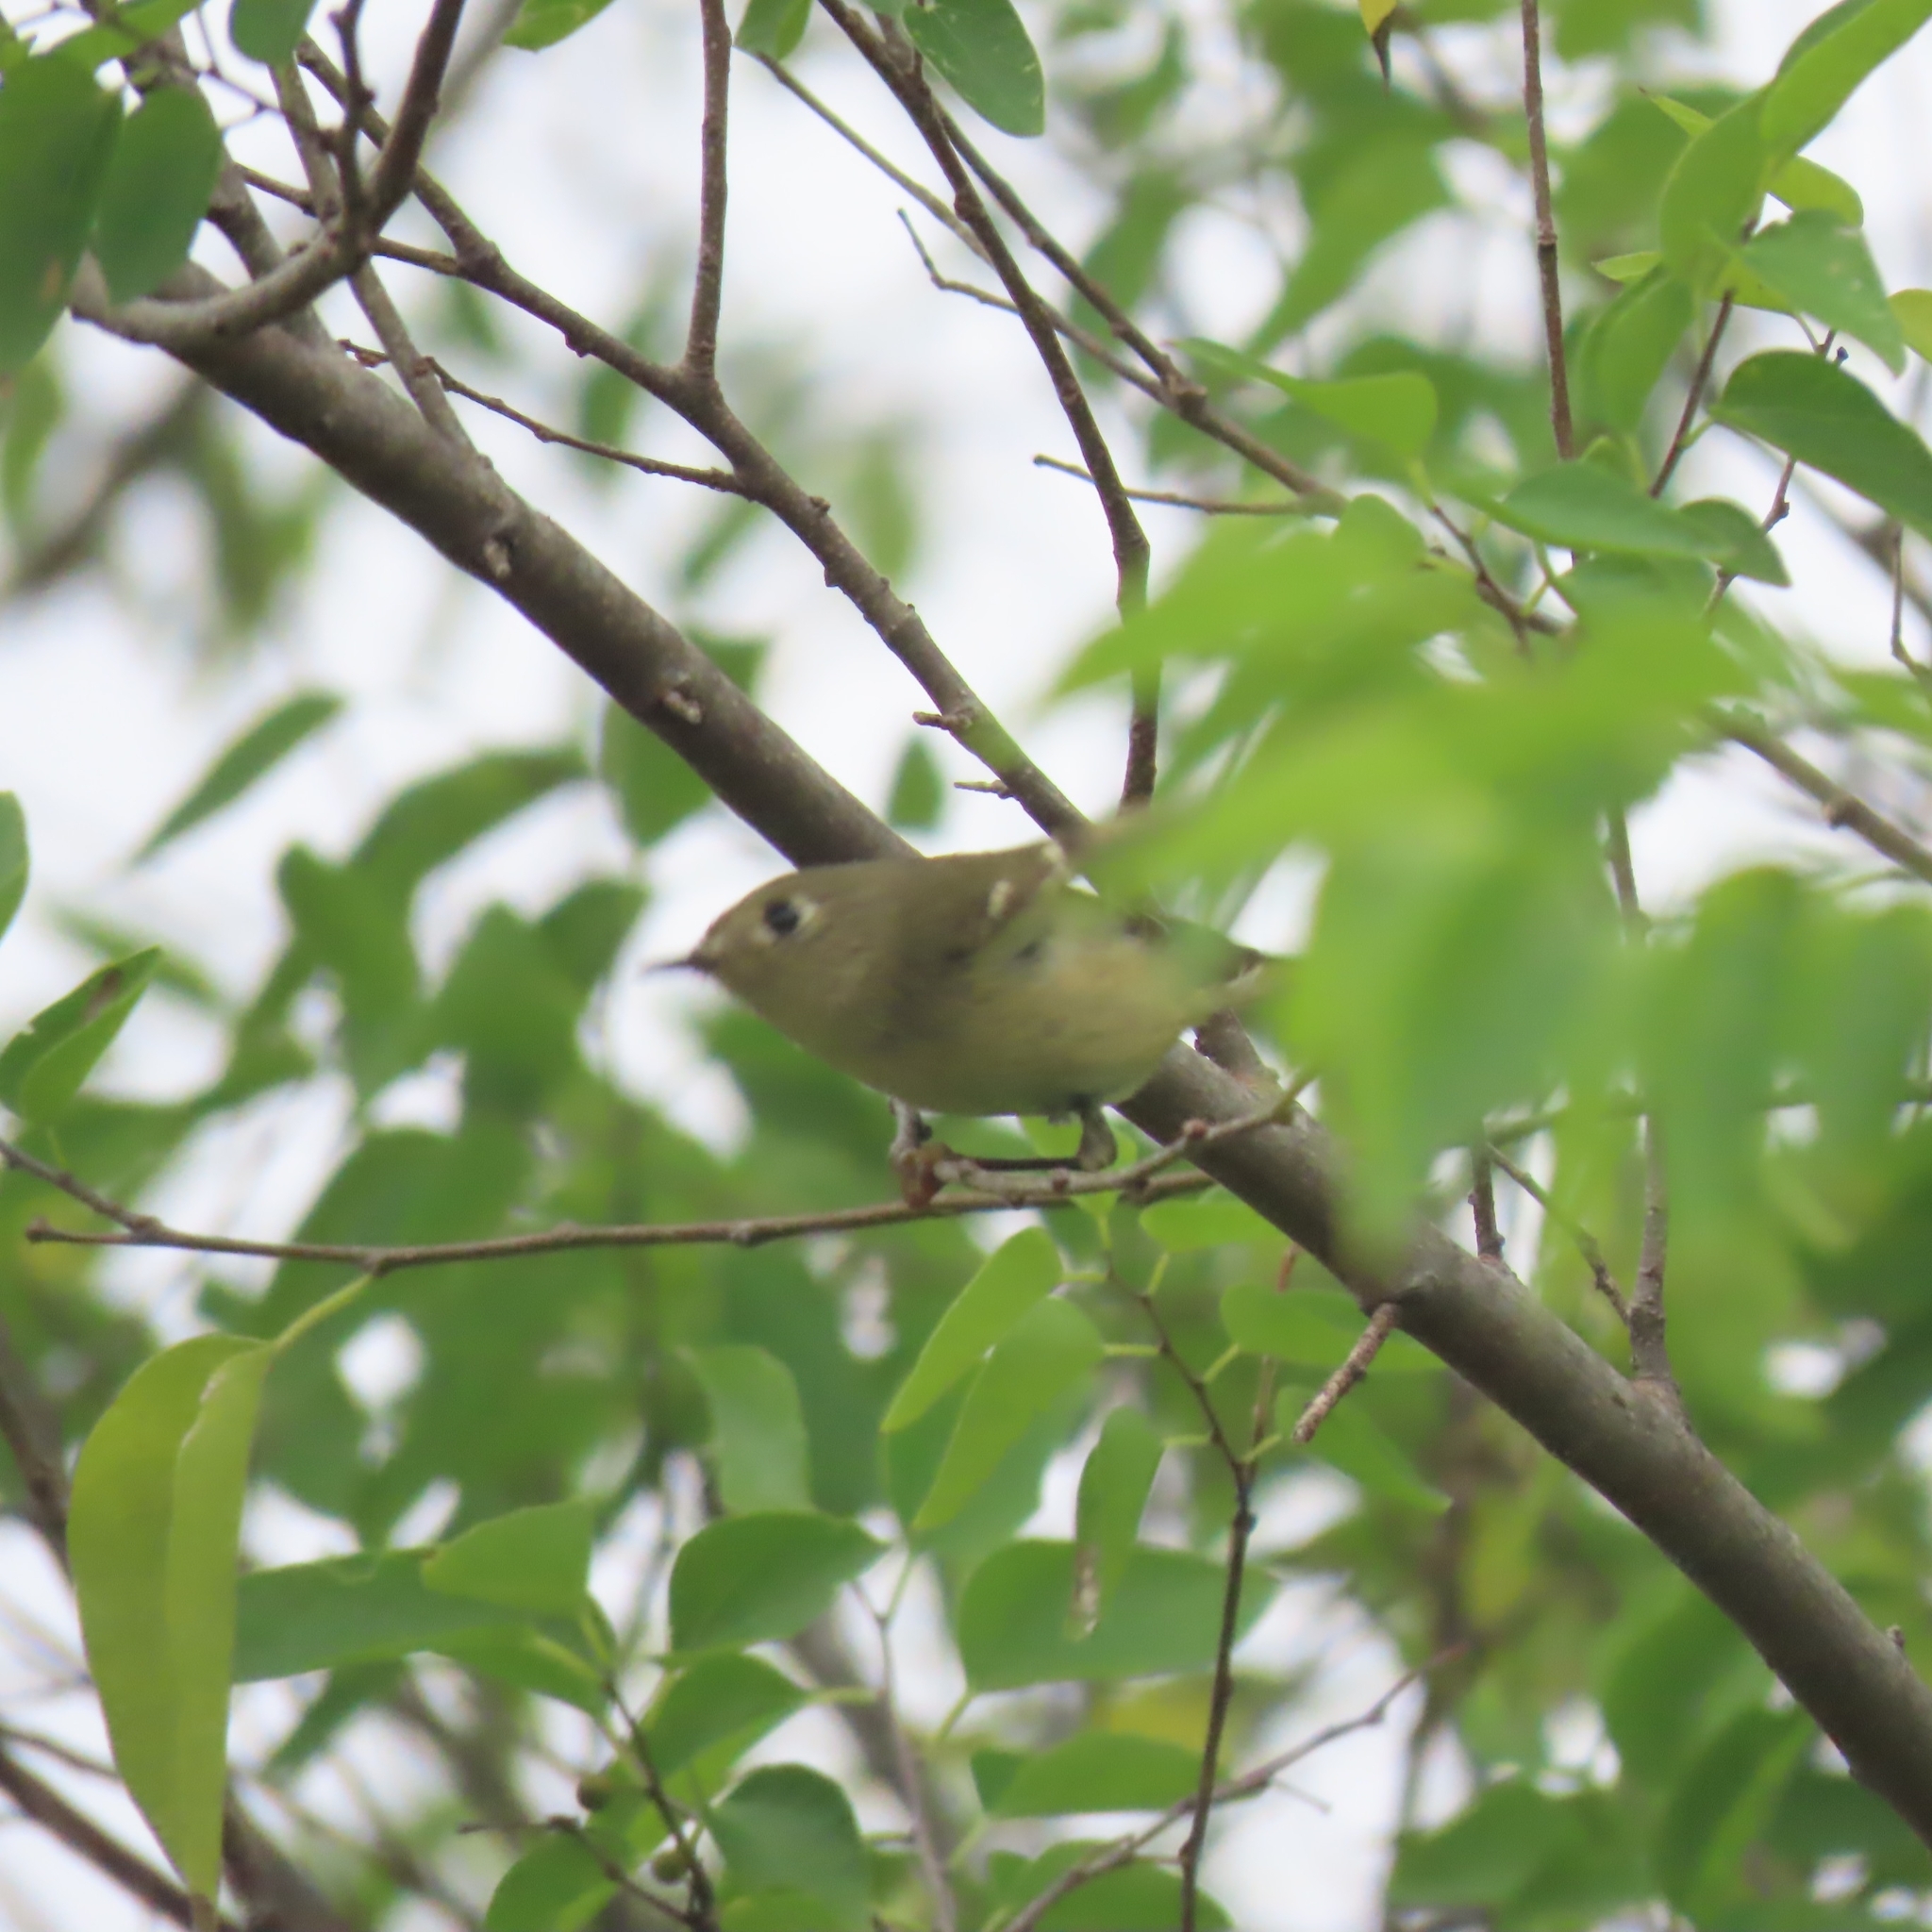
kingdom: Animalia
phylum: Chordata
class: Aves
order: Passeriformes
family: Regulidae
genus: Regulus
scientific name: Regulus calendula
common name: Ruby-crowned kinglet
